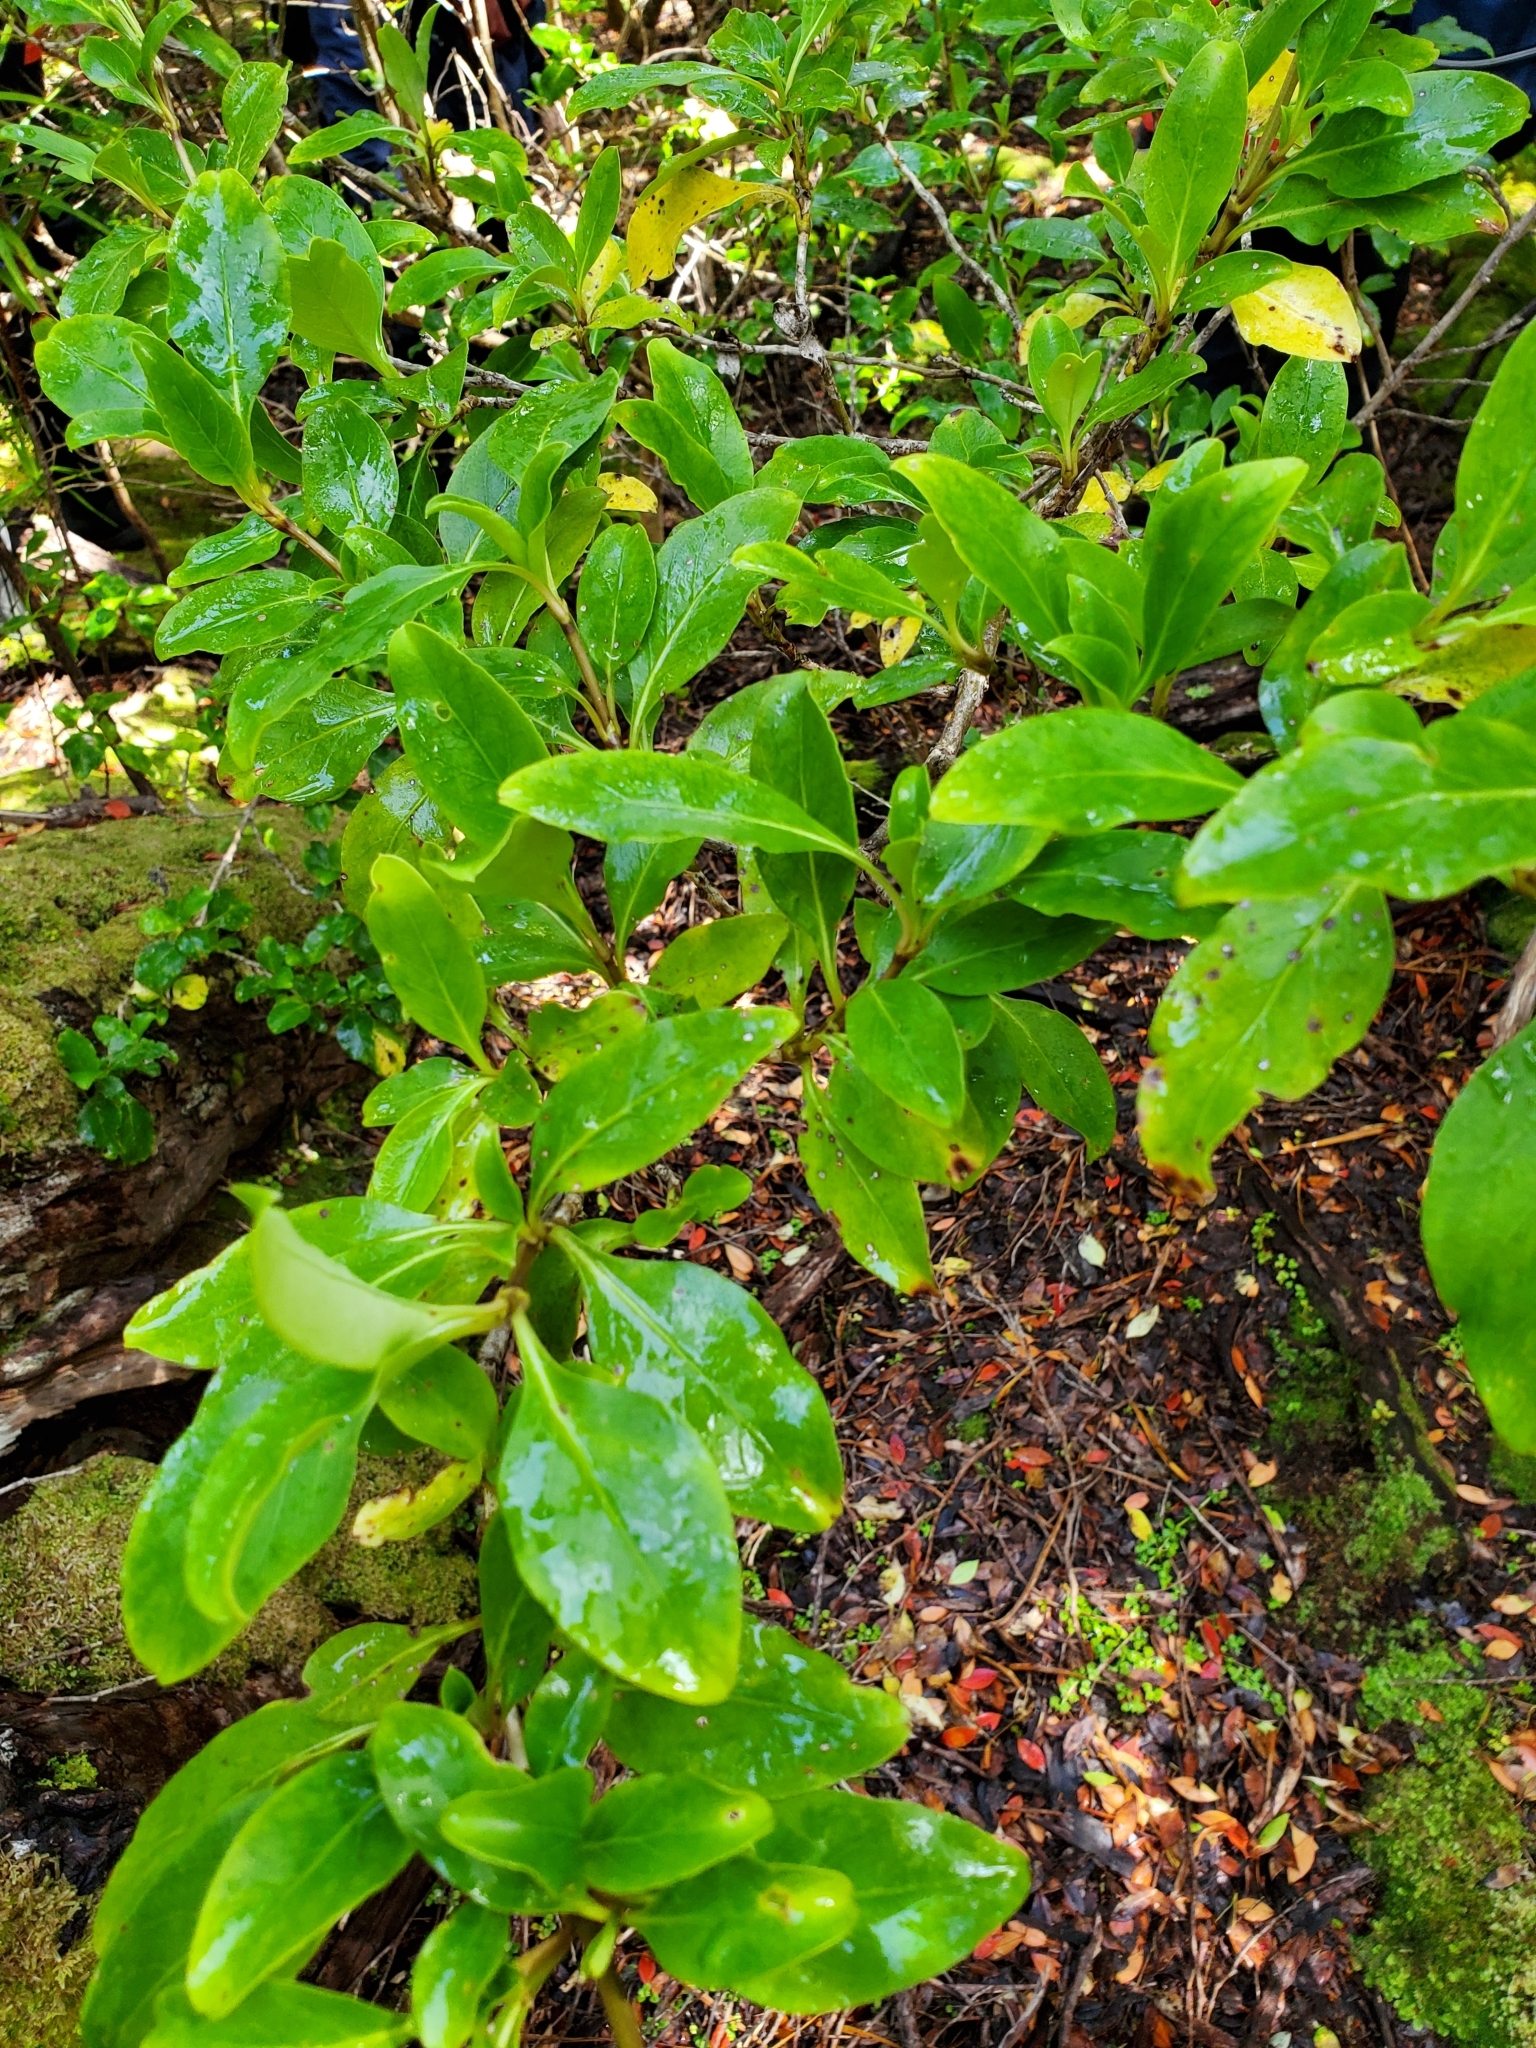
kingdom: Plantae
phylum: Tracheophyta
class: Magnoliopsida
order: Gentianales
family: Rubiaceae
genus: Coprosma
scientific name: Coprosma foetidissima
